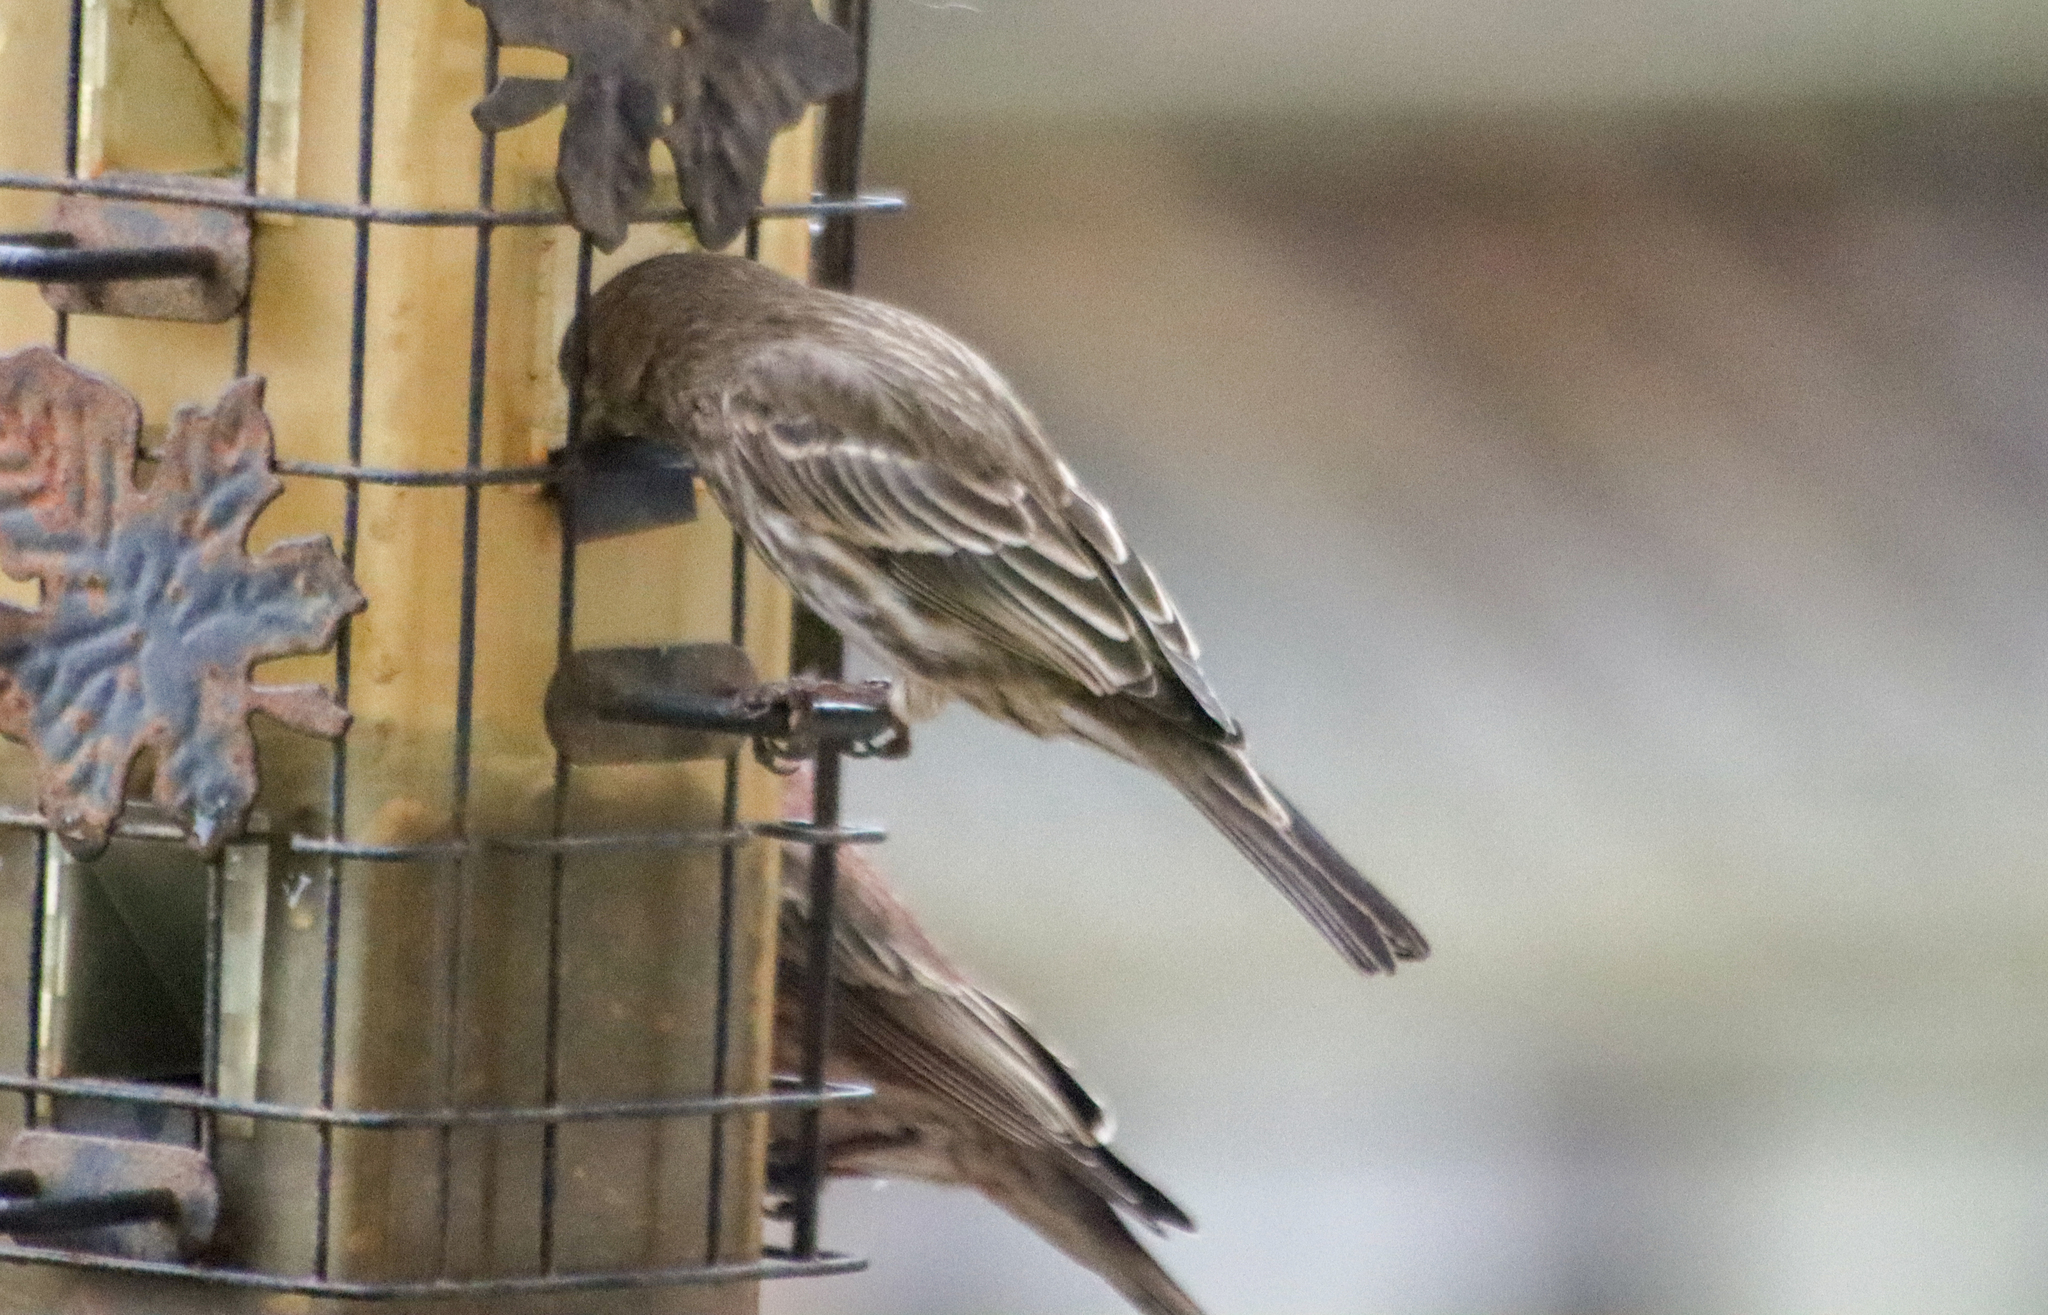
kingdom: Animalia
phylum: Chordata
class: Aves
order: Passeriformes
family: Fringillidae
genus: Haemorhous
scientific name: Haemorhous mexicanus
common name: House finch
